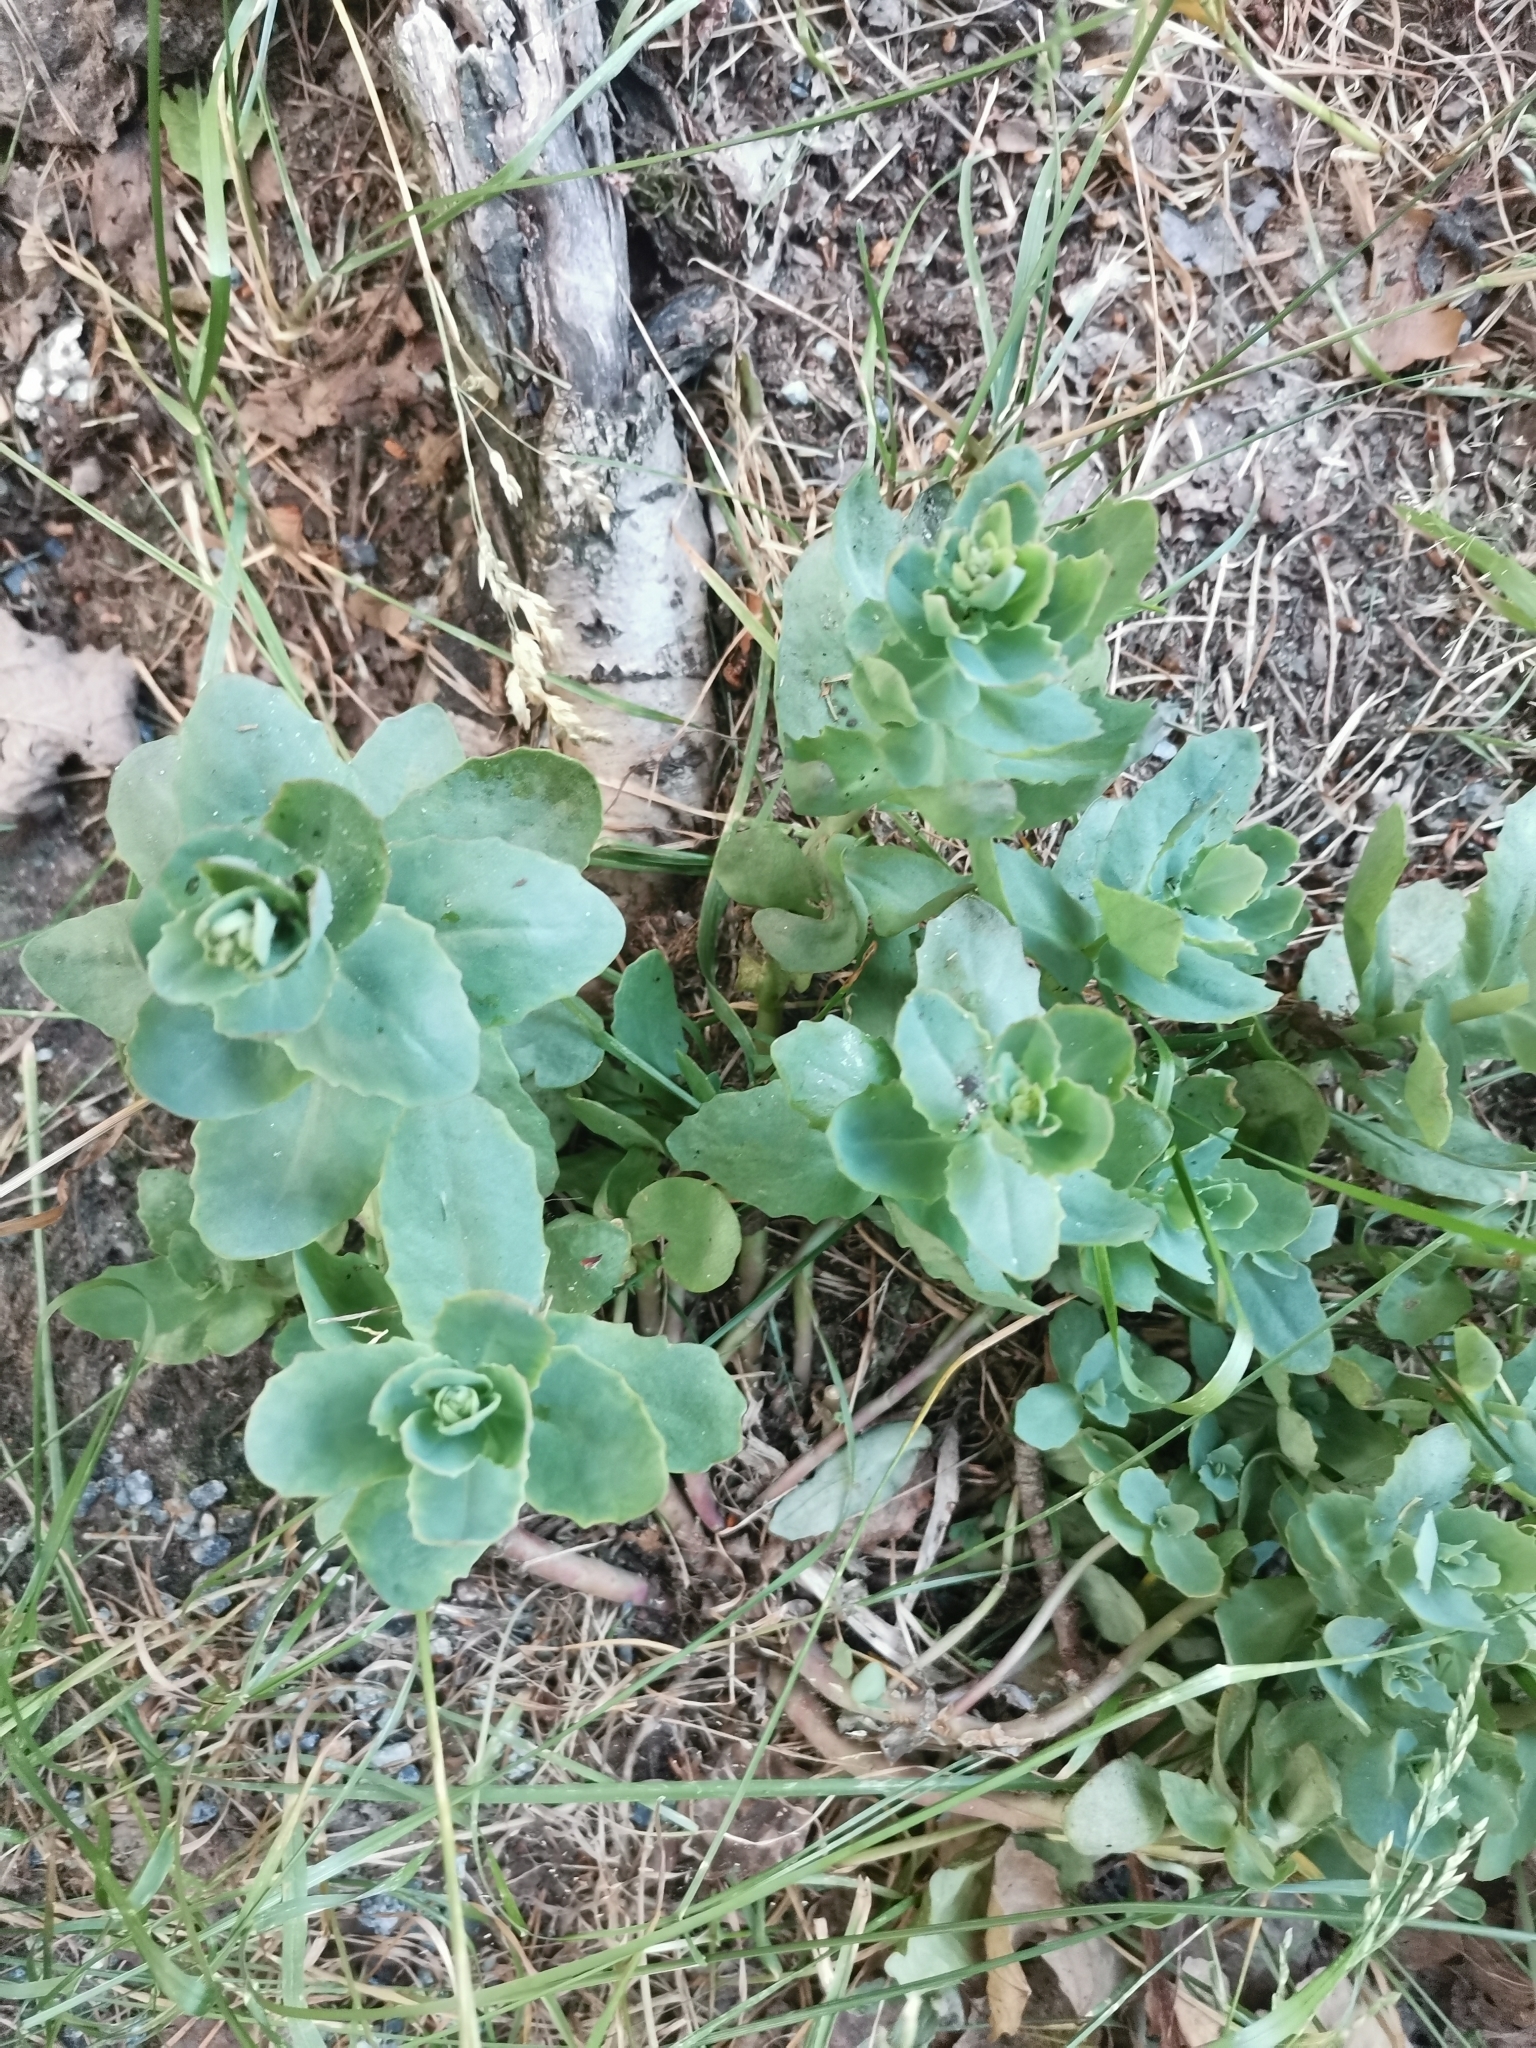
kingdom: Plantae
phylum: Tracheophyta
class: Magnoliopsida
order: Saxifragales
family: Crassulaceae
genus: Hylotelephium
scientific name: Hylotelephium maximum
